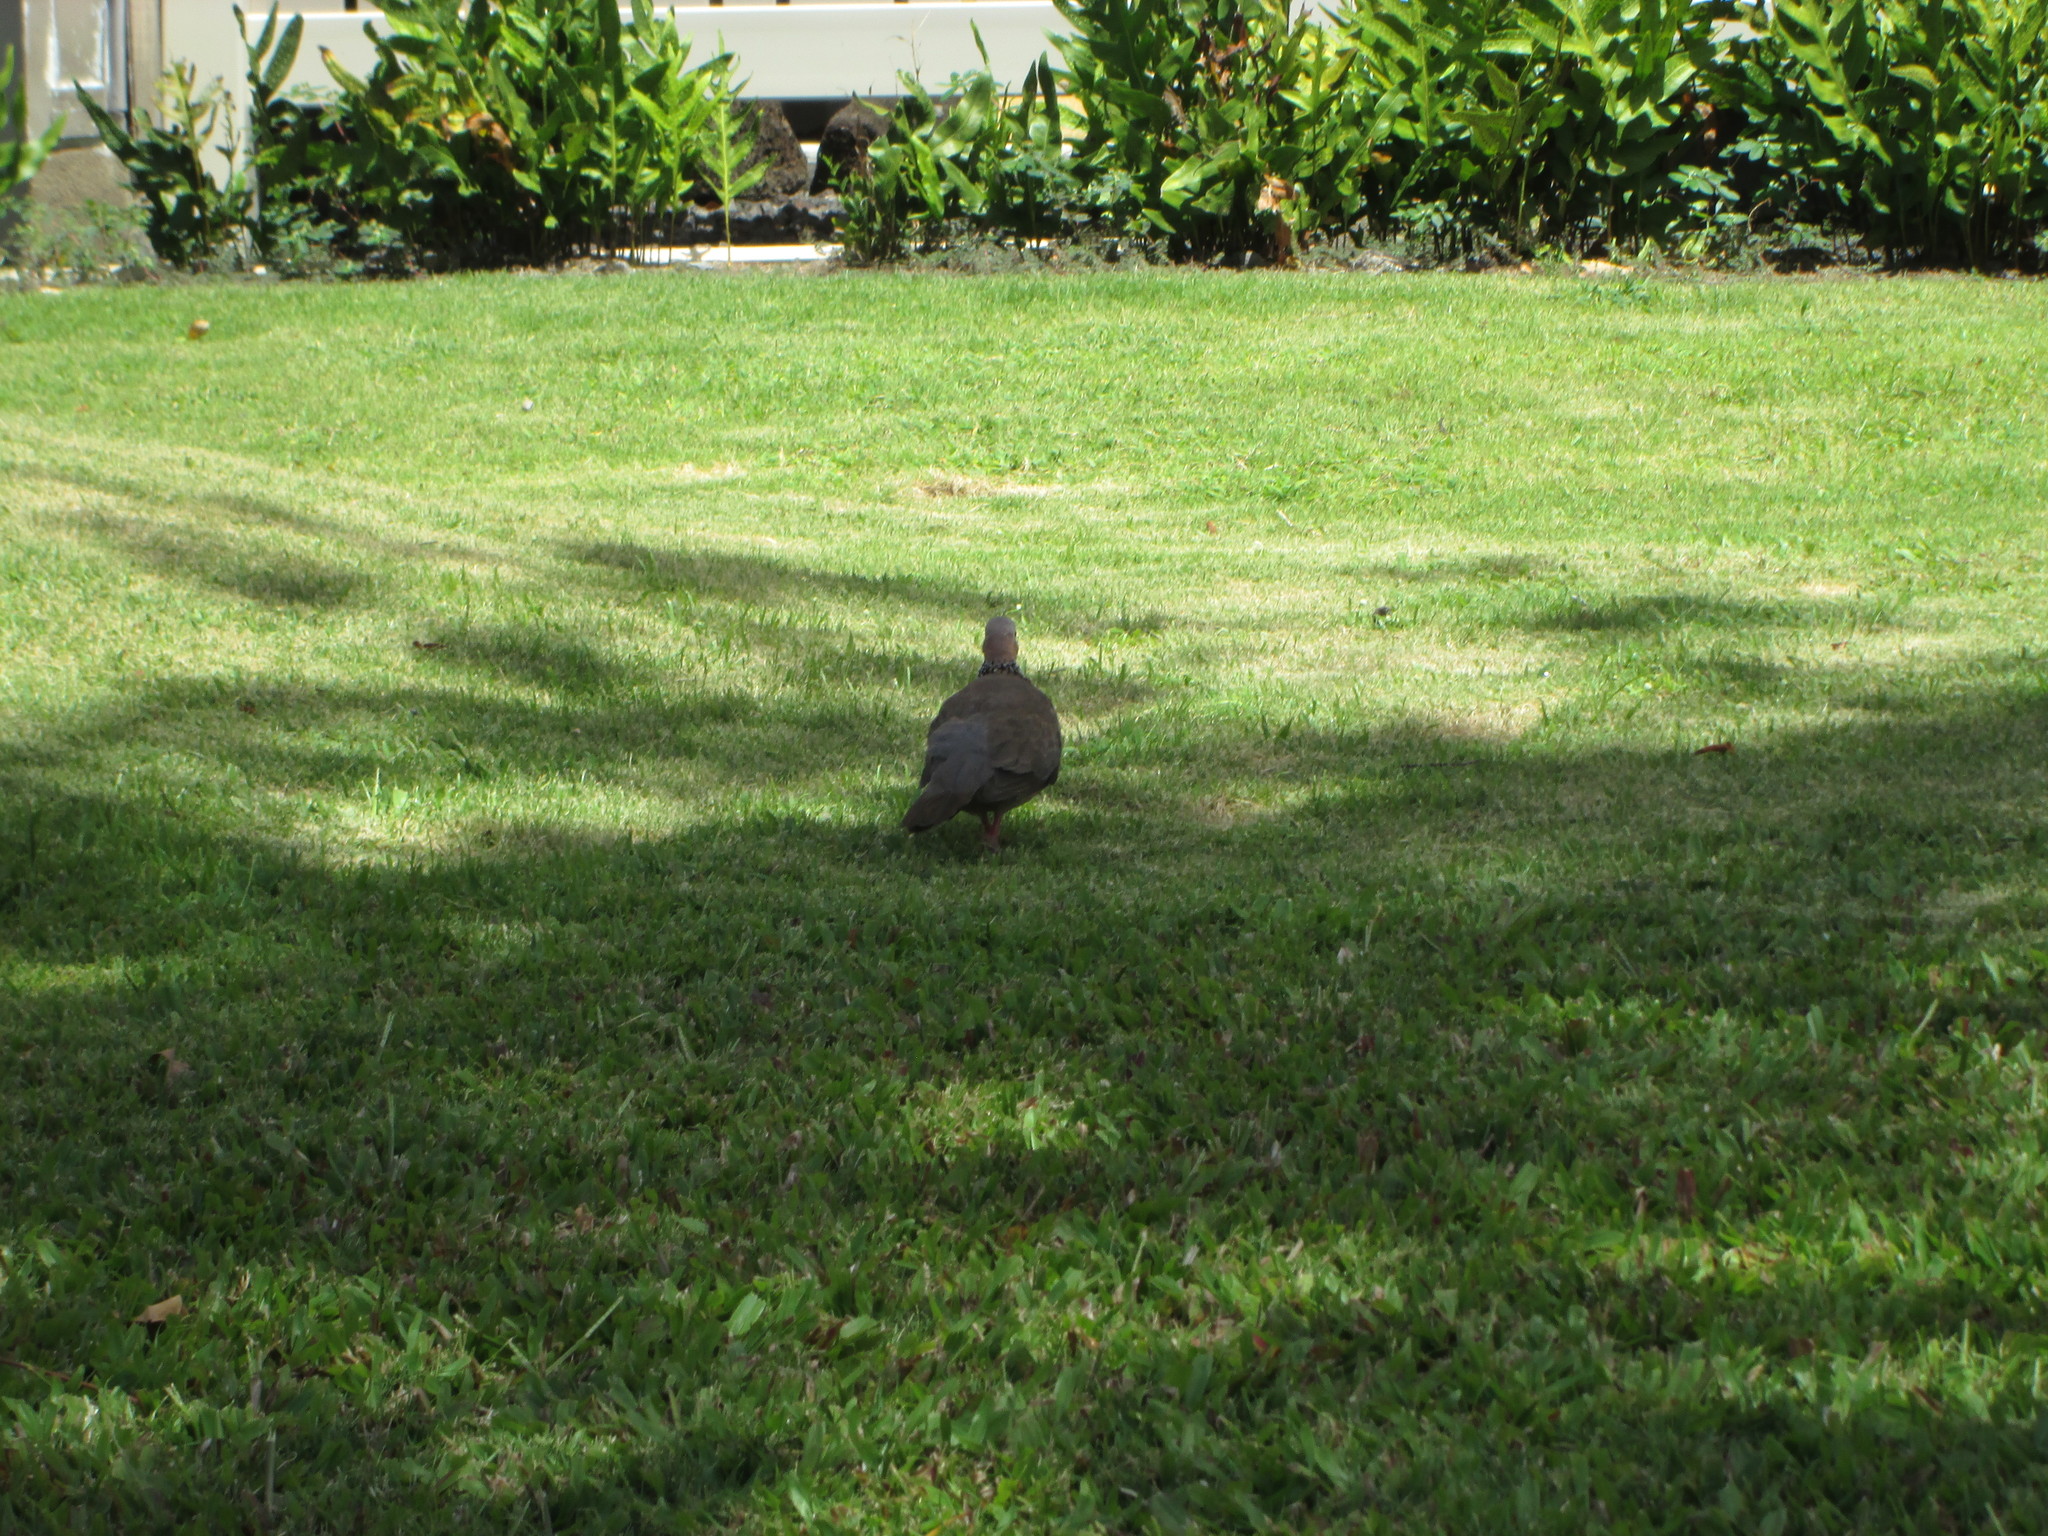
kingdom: Animalia
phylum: Chordata
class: Aves
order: Columbiformes
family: Columbidae
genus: Spilopelia
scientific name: Spilopelia chinensis
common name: Spotted dove
